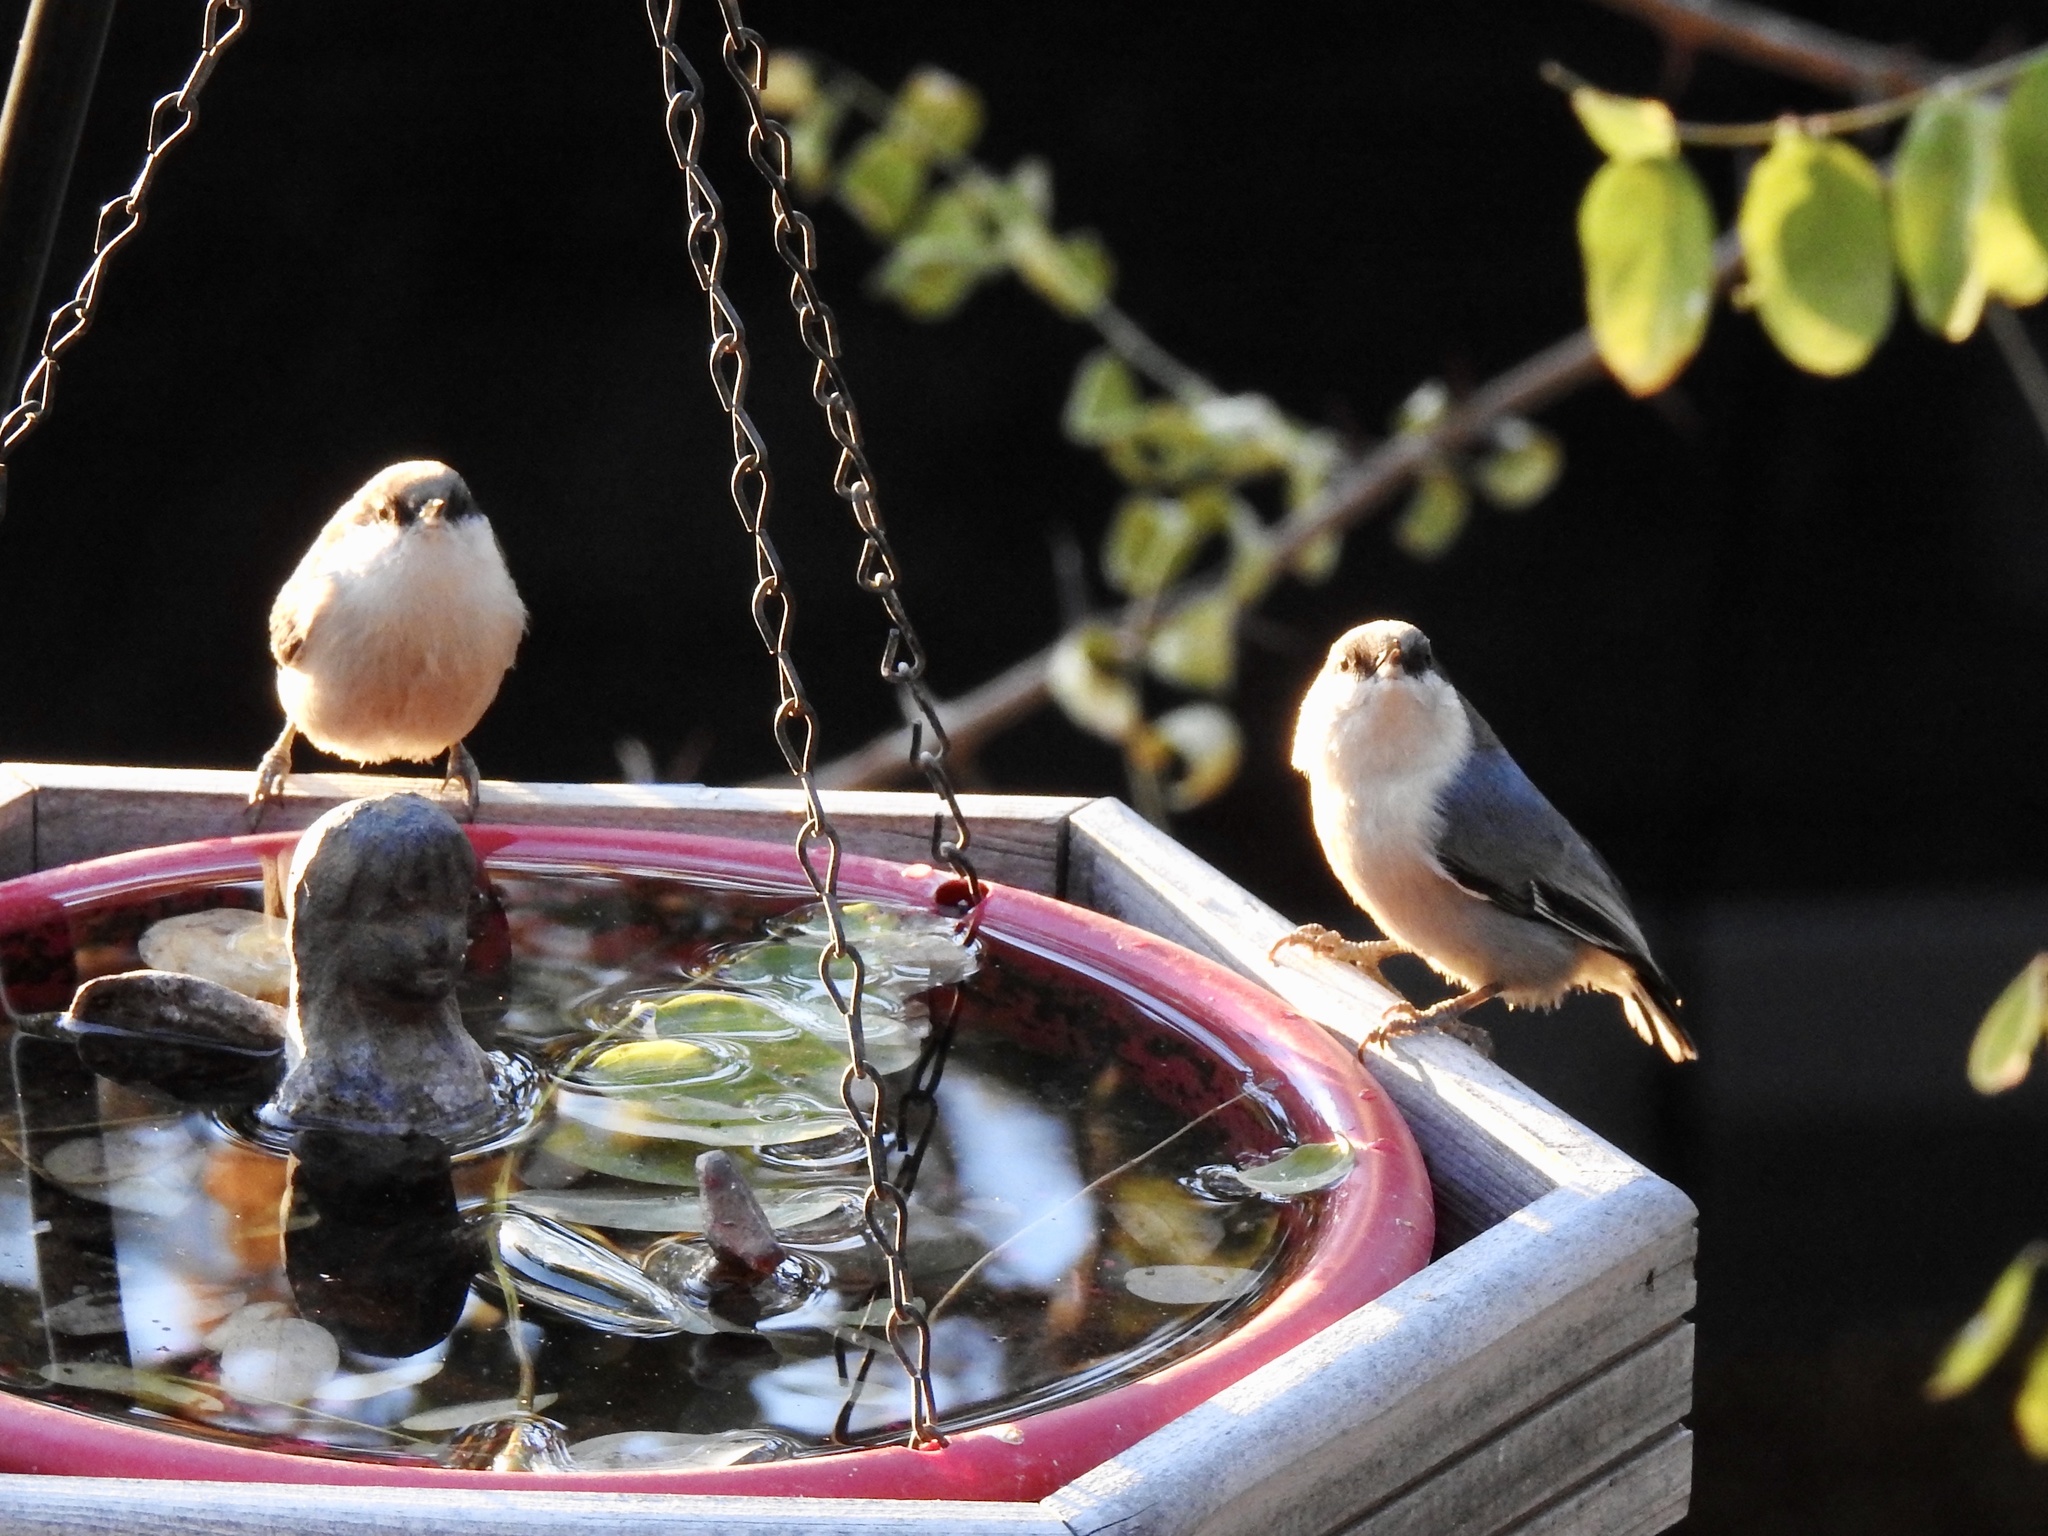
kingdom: Animalia
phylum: Chordata
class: Aves
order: Passeriformes
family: Sittidae
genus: Sitta
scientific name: Sitta pygmaea
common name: Pygmy nuthatch
